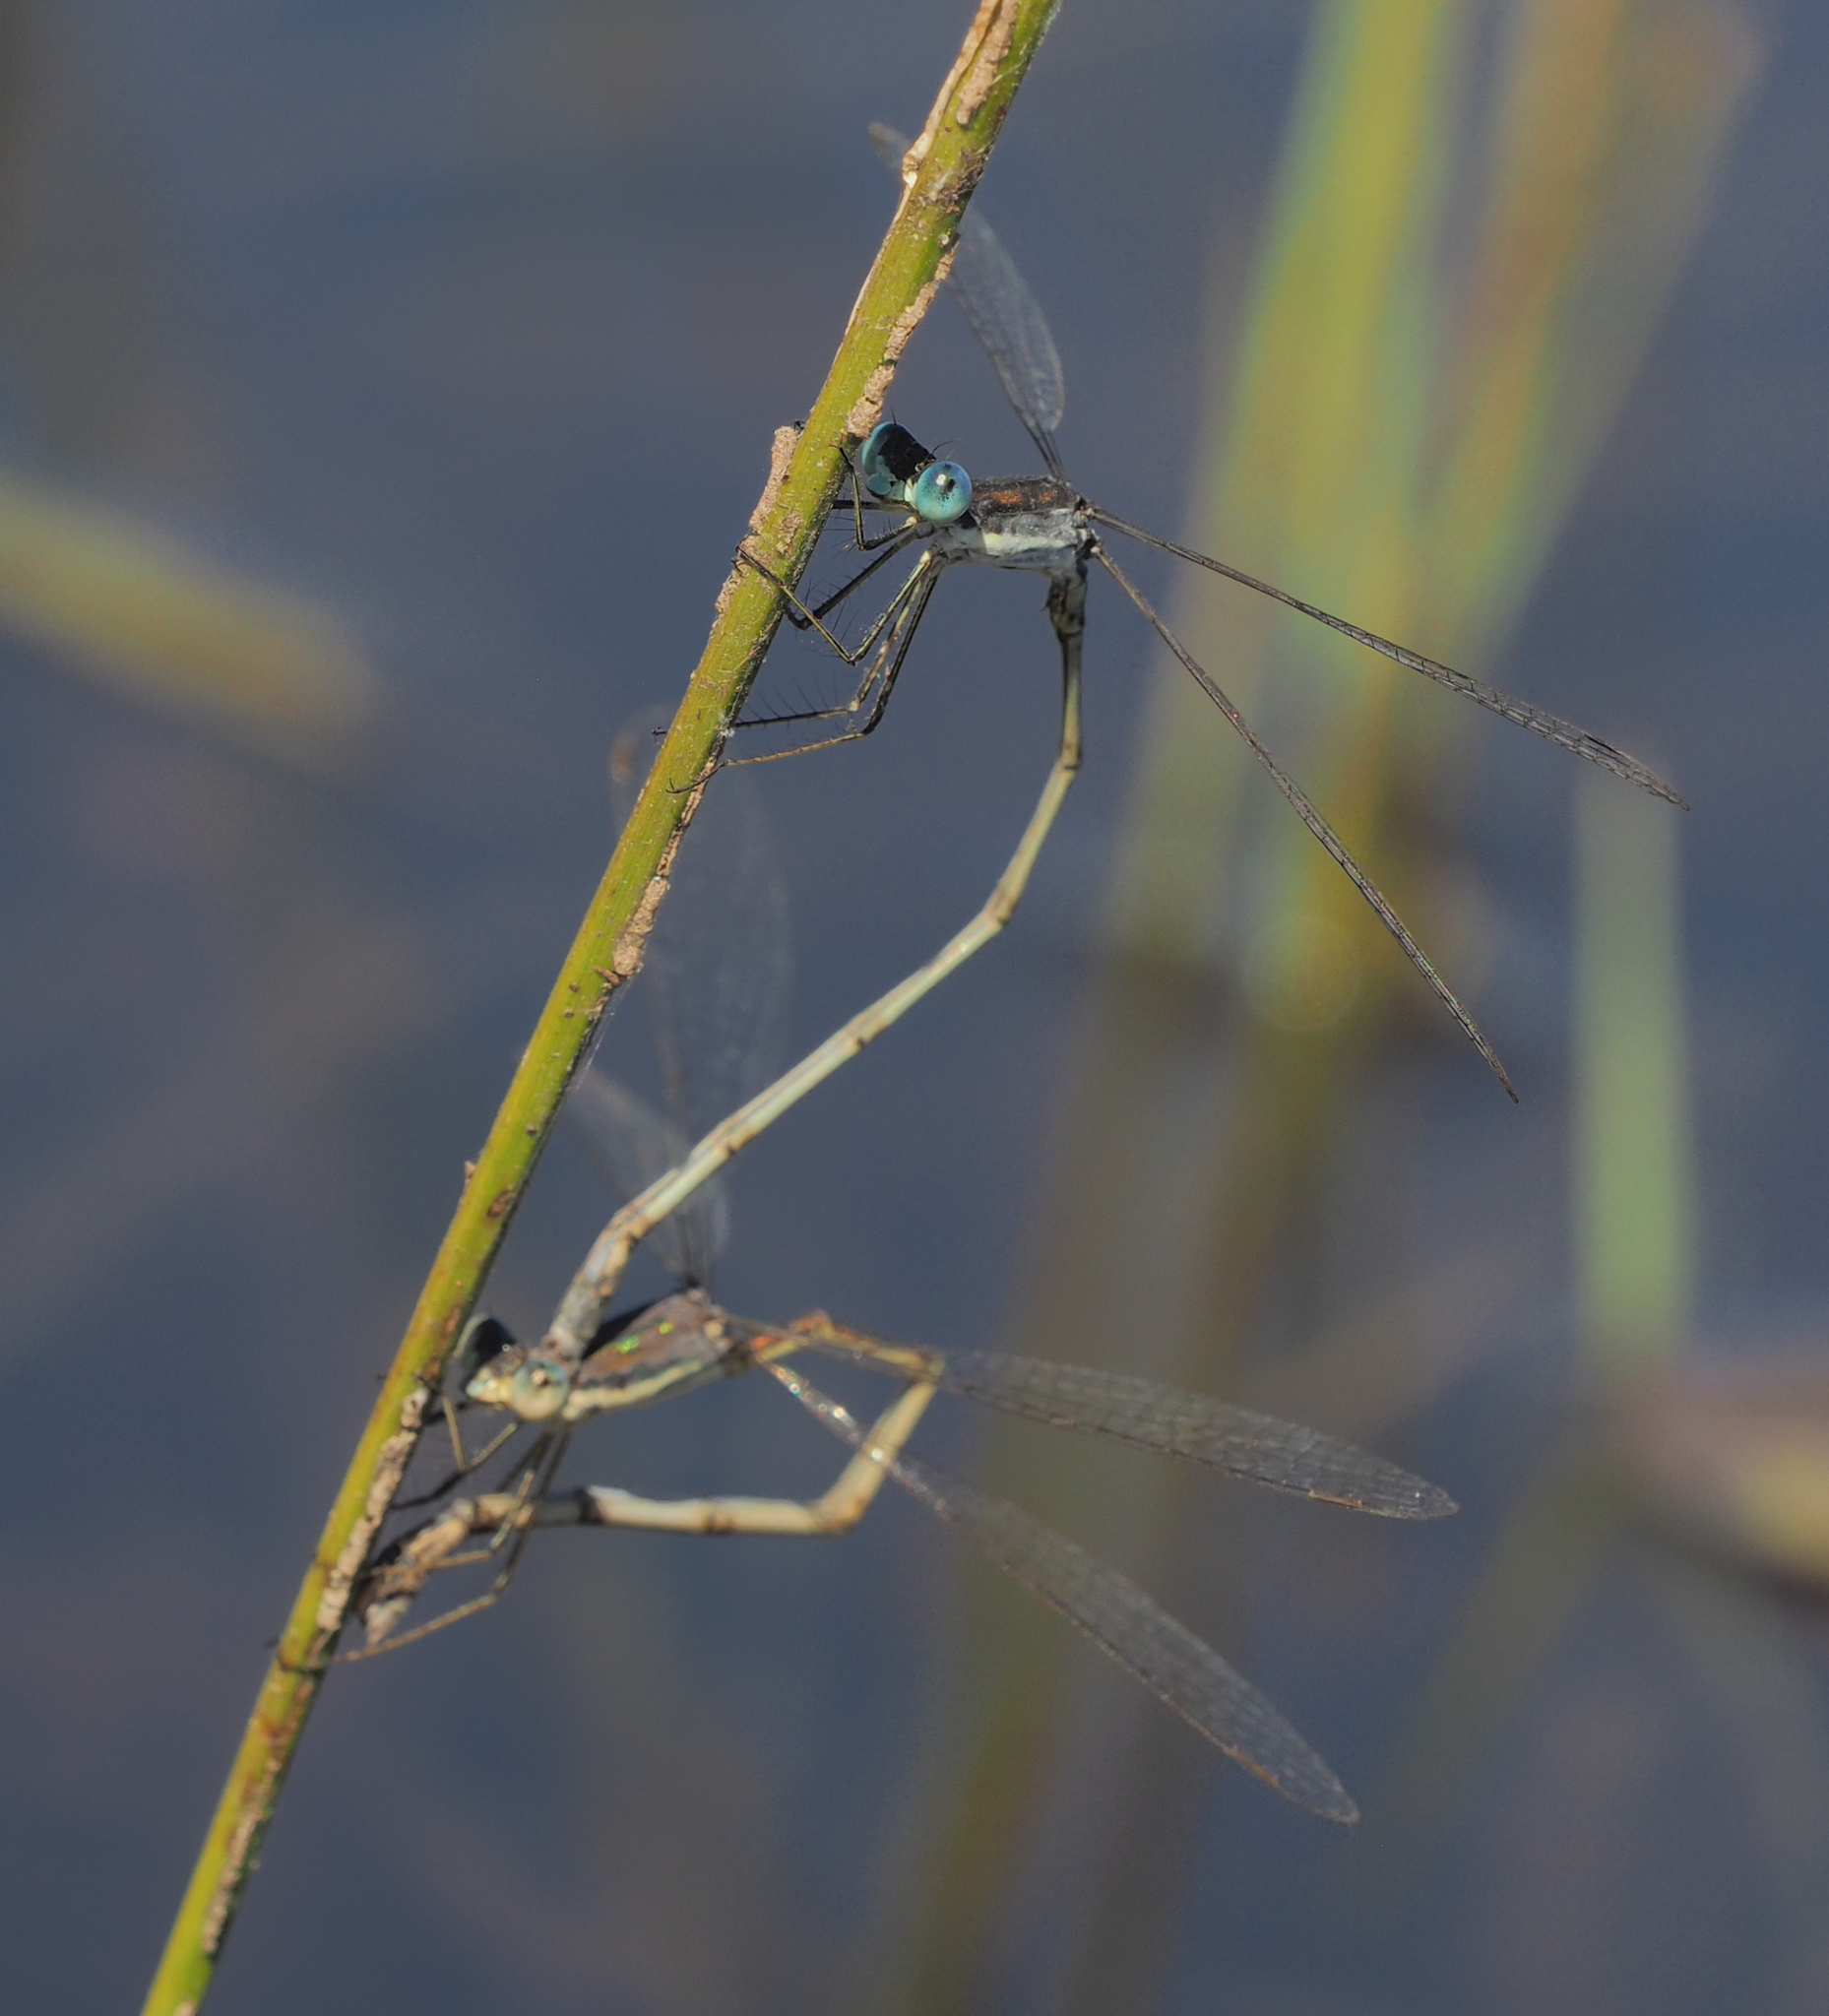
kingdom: Animalia
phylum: Arthropoda
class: Insecta
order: Odonata
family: Lestidae
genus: Lestes
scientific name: Lestes pinheyi
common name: Pinhey's spreadwing
